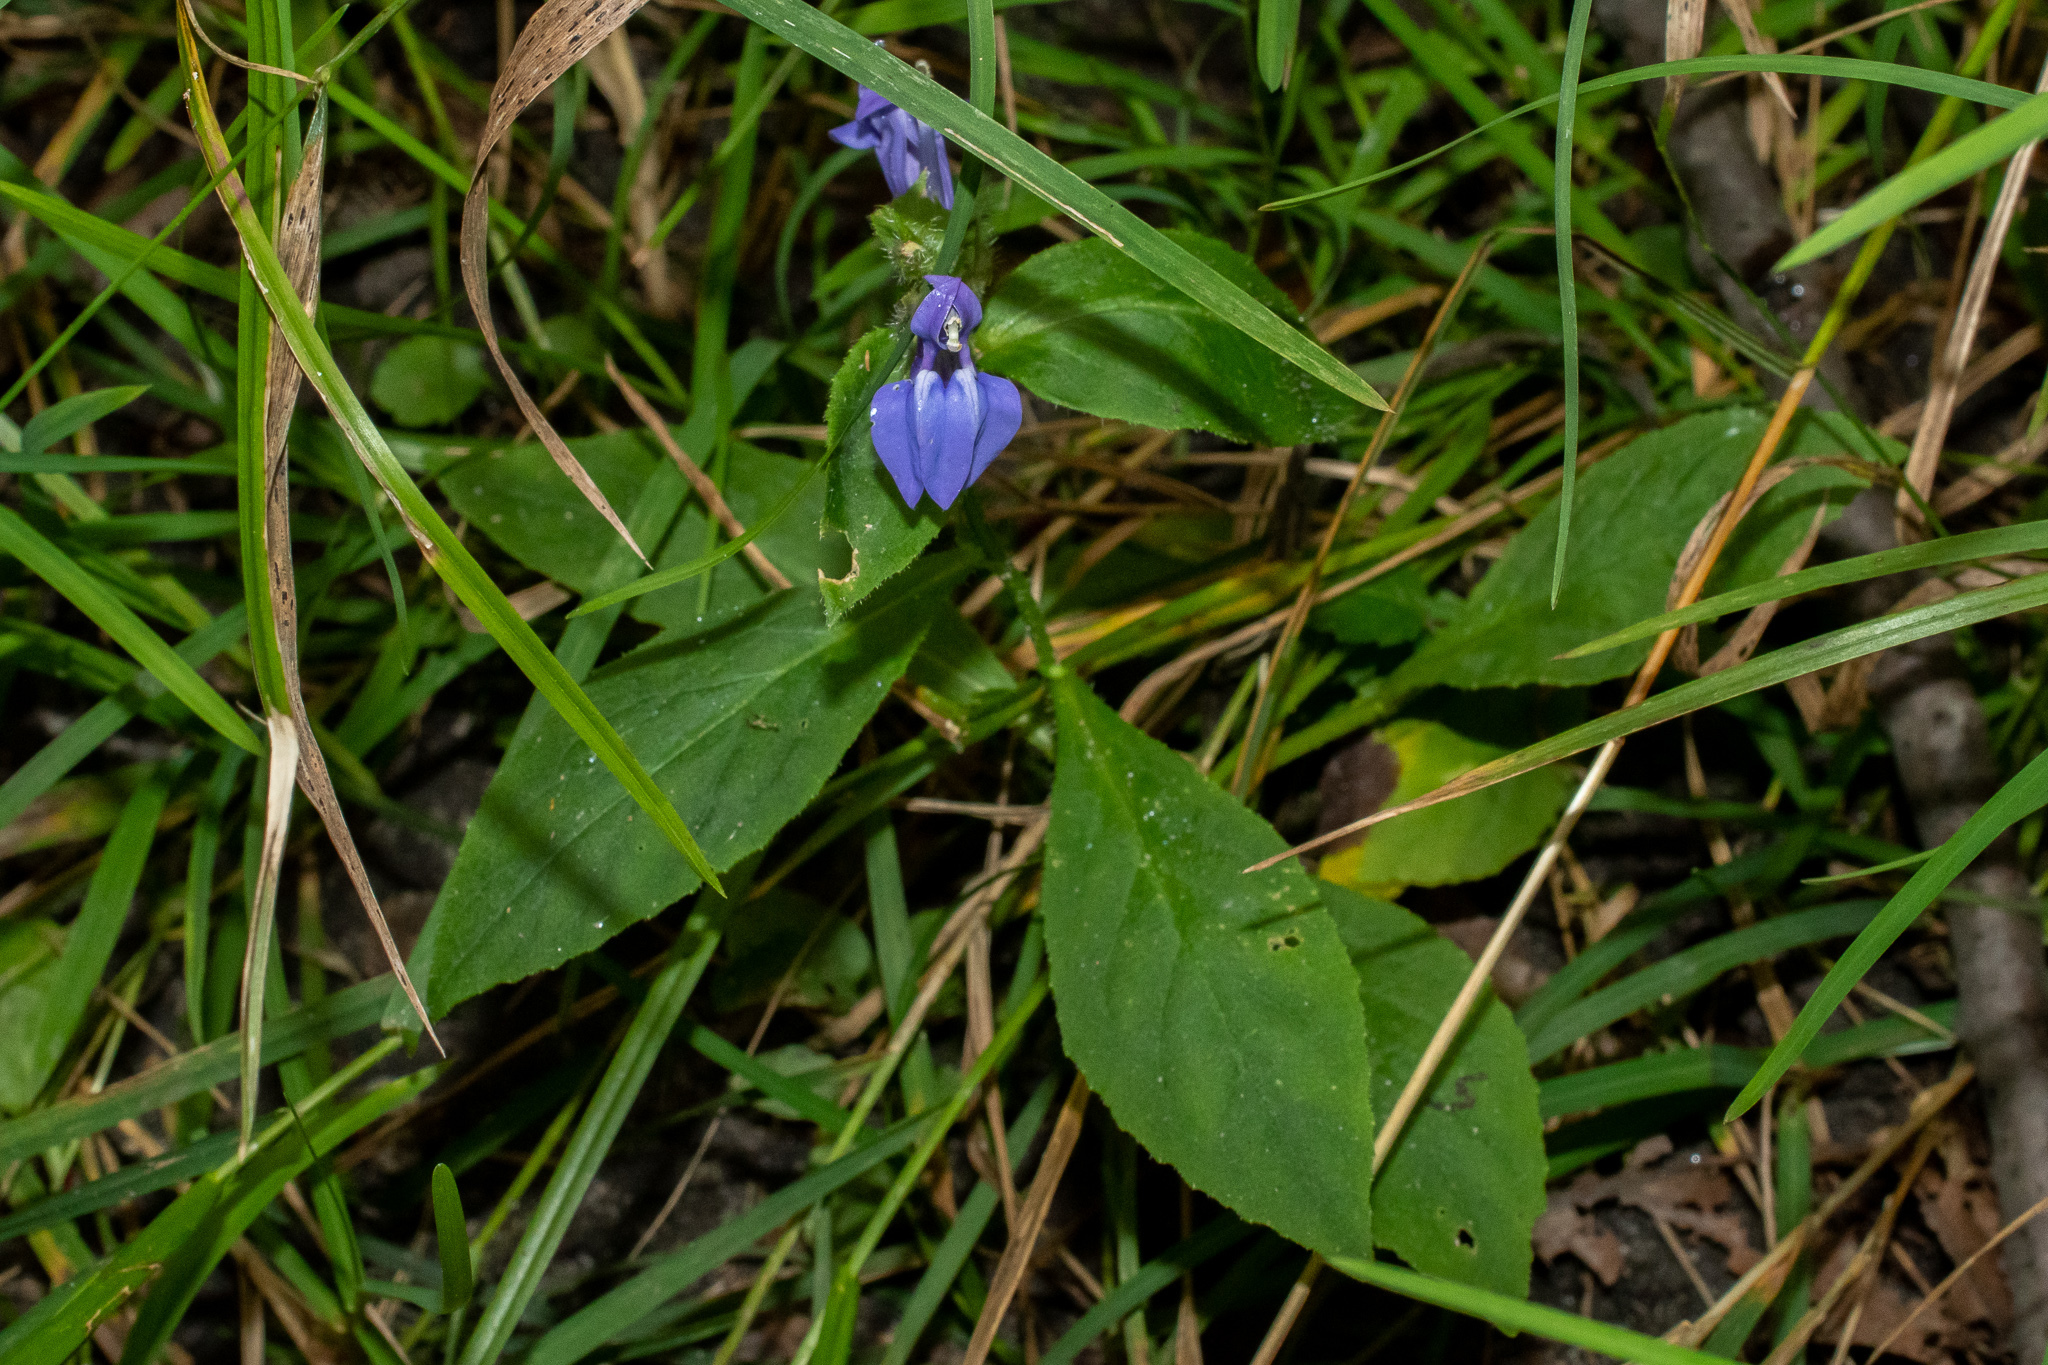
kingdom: Plantae
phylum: Tracheophyta
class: Magnoliopsida
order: Asterales
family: Campanulaceae
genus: Lobelia
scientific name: Lobelia siphilitica
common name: Great lobelia
